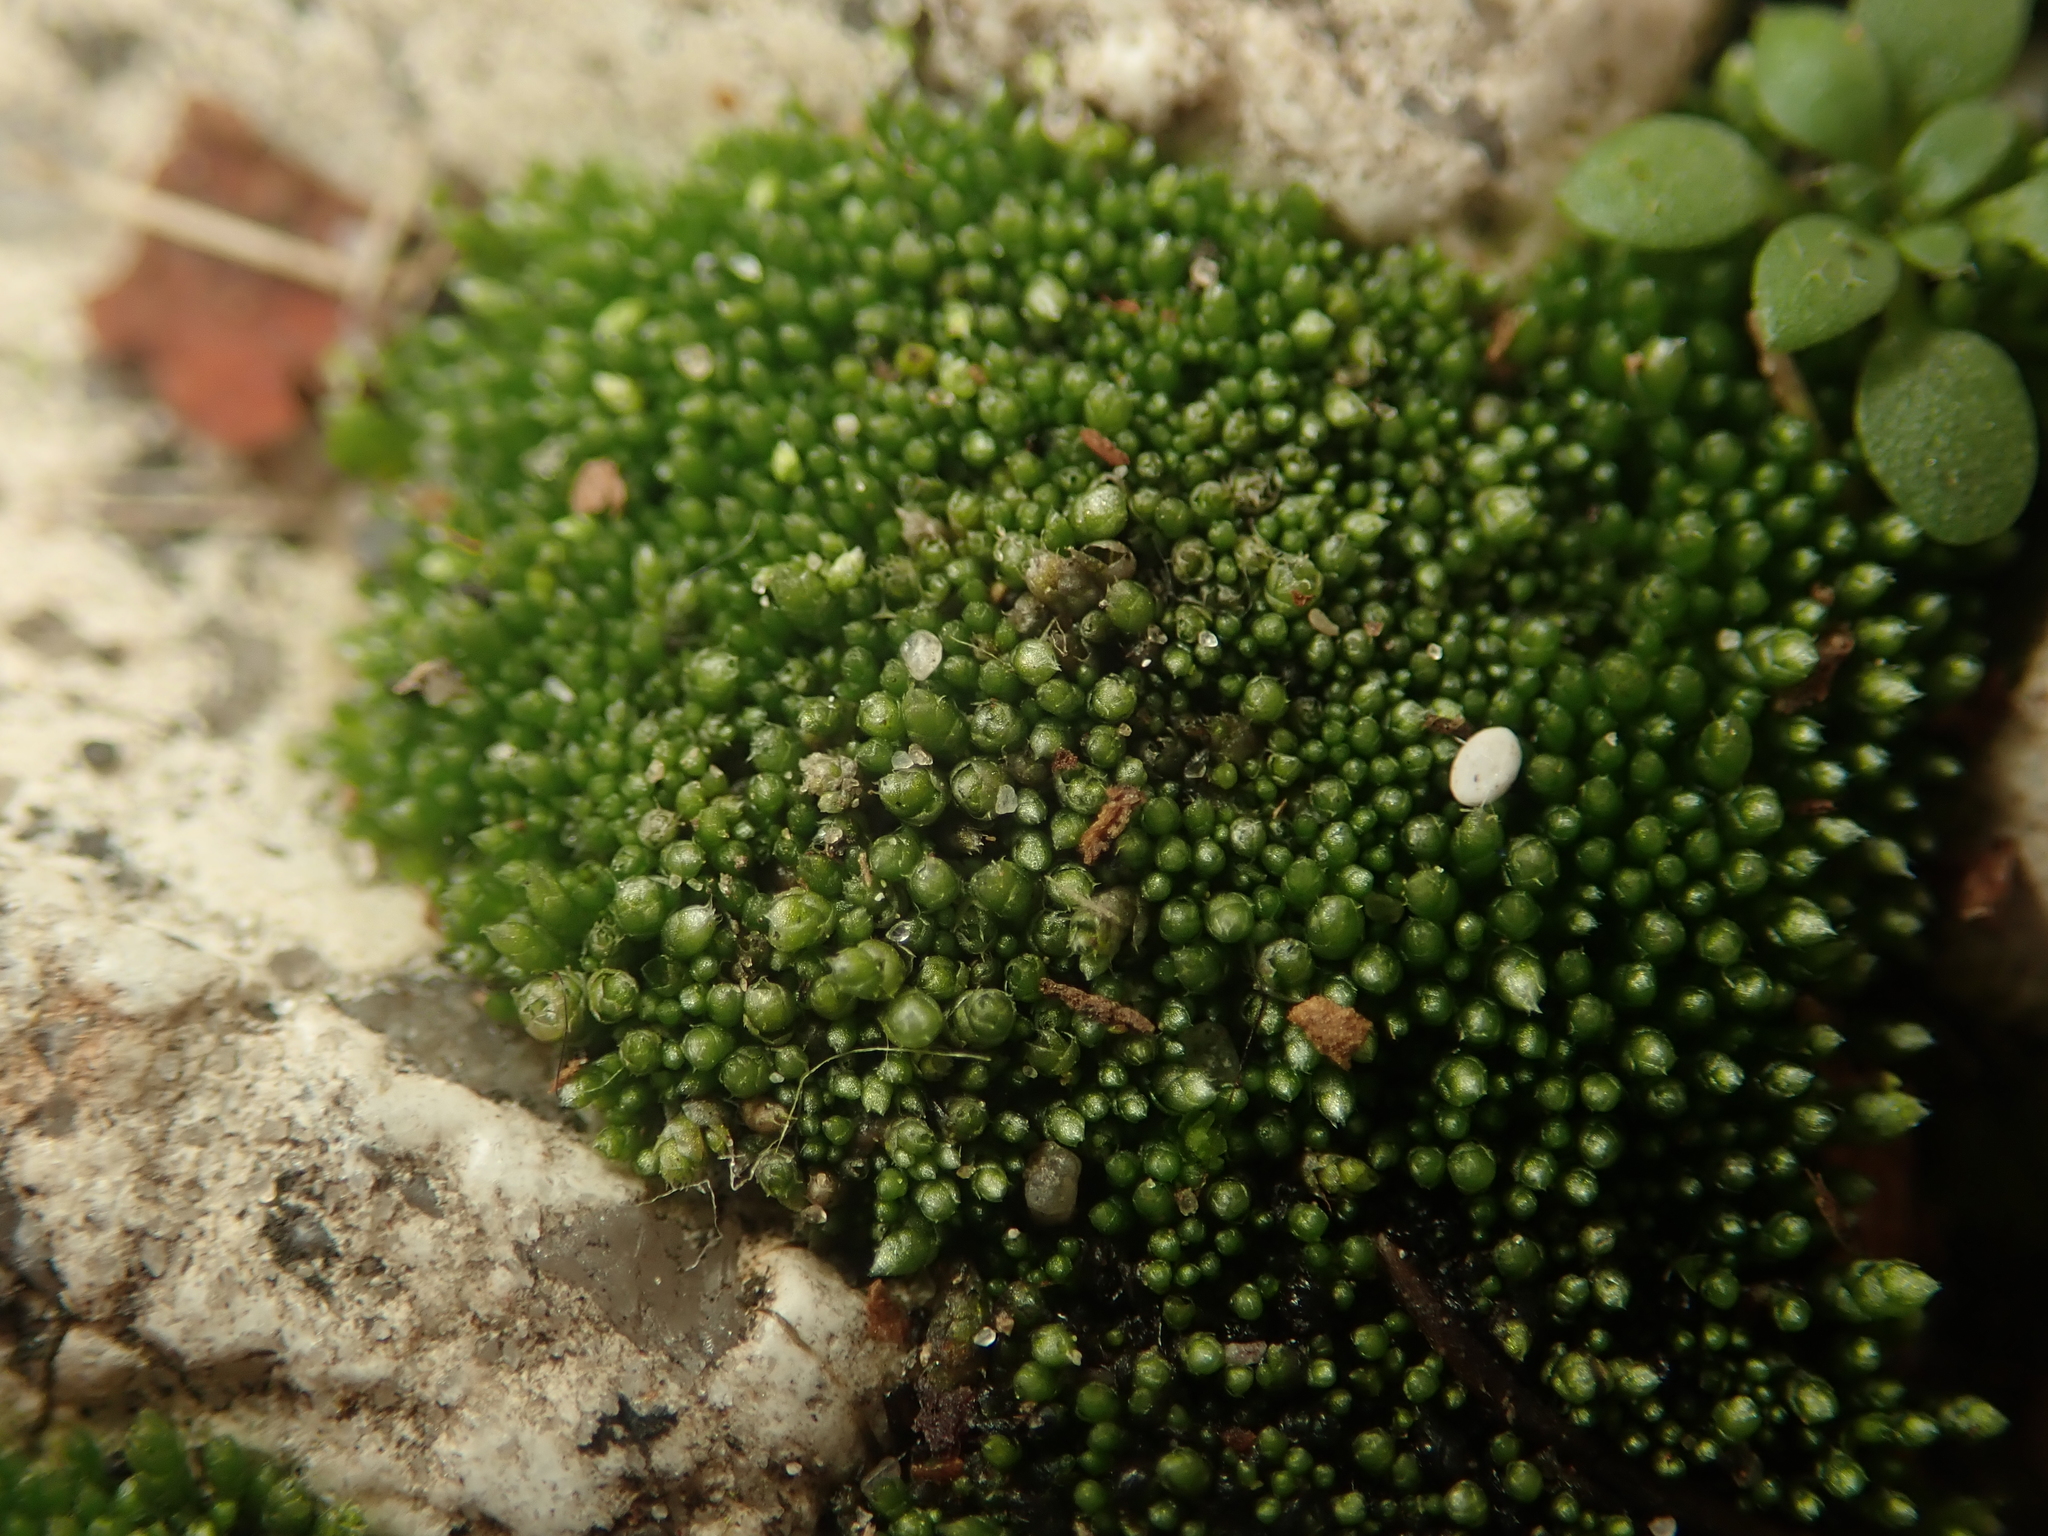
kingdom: Plantae
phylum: Bryophyta
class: Bryopsida
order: Bryales
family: Bryaceae
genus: Bryum
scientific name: Bryum argenteum
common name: Silver-moss
